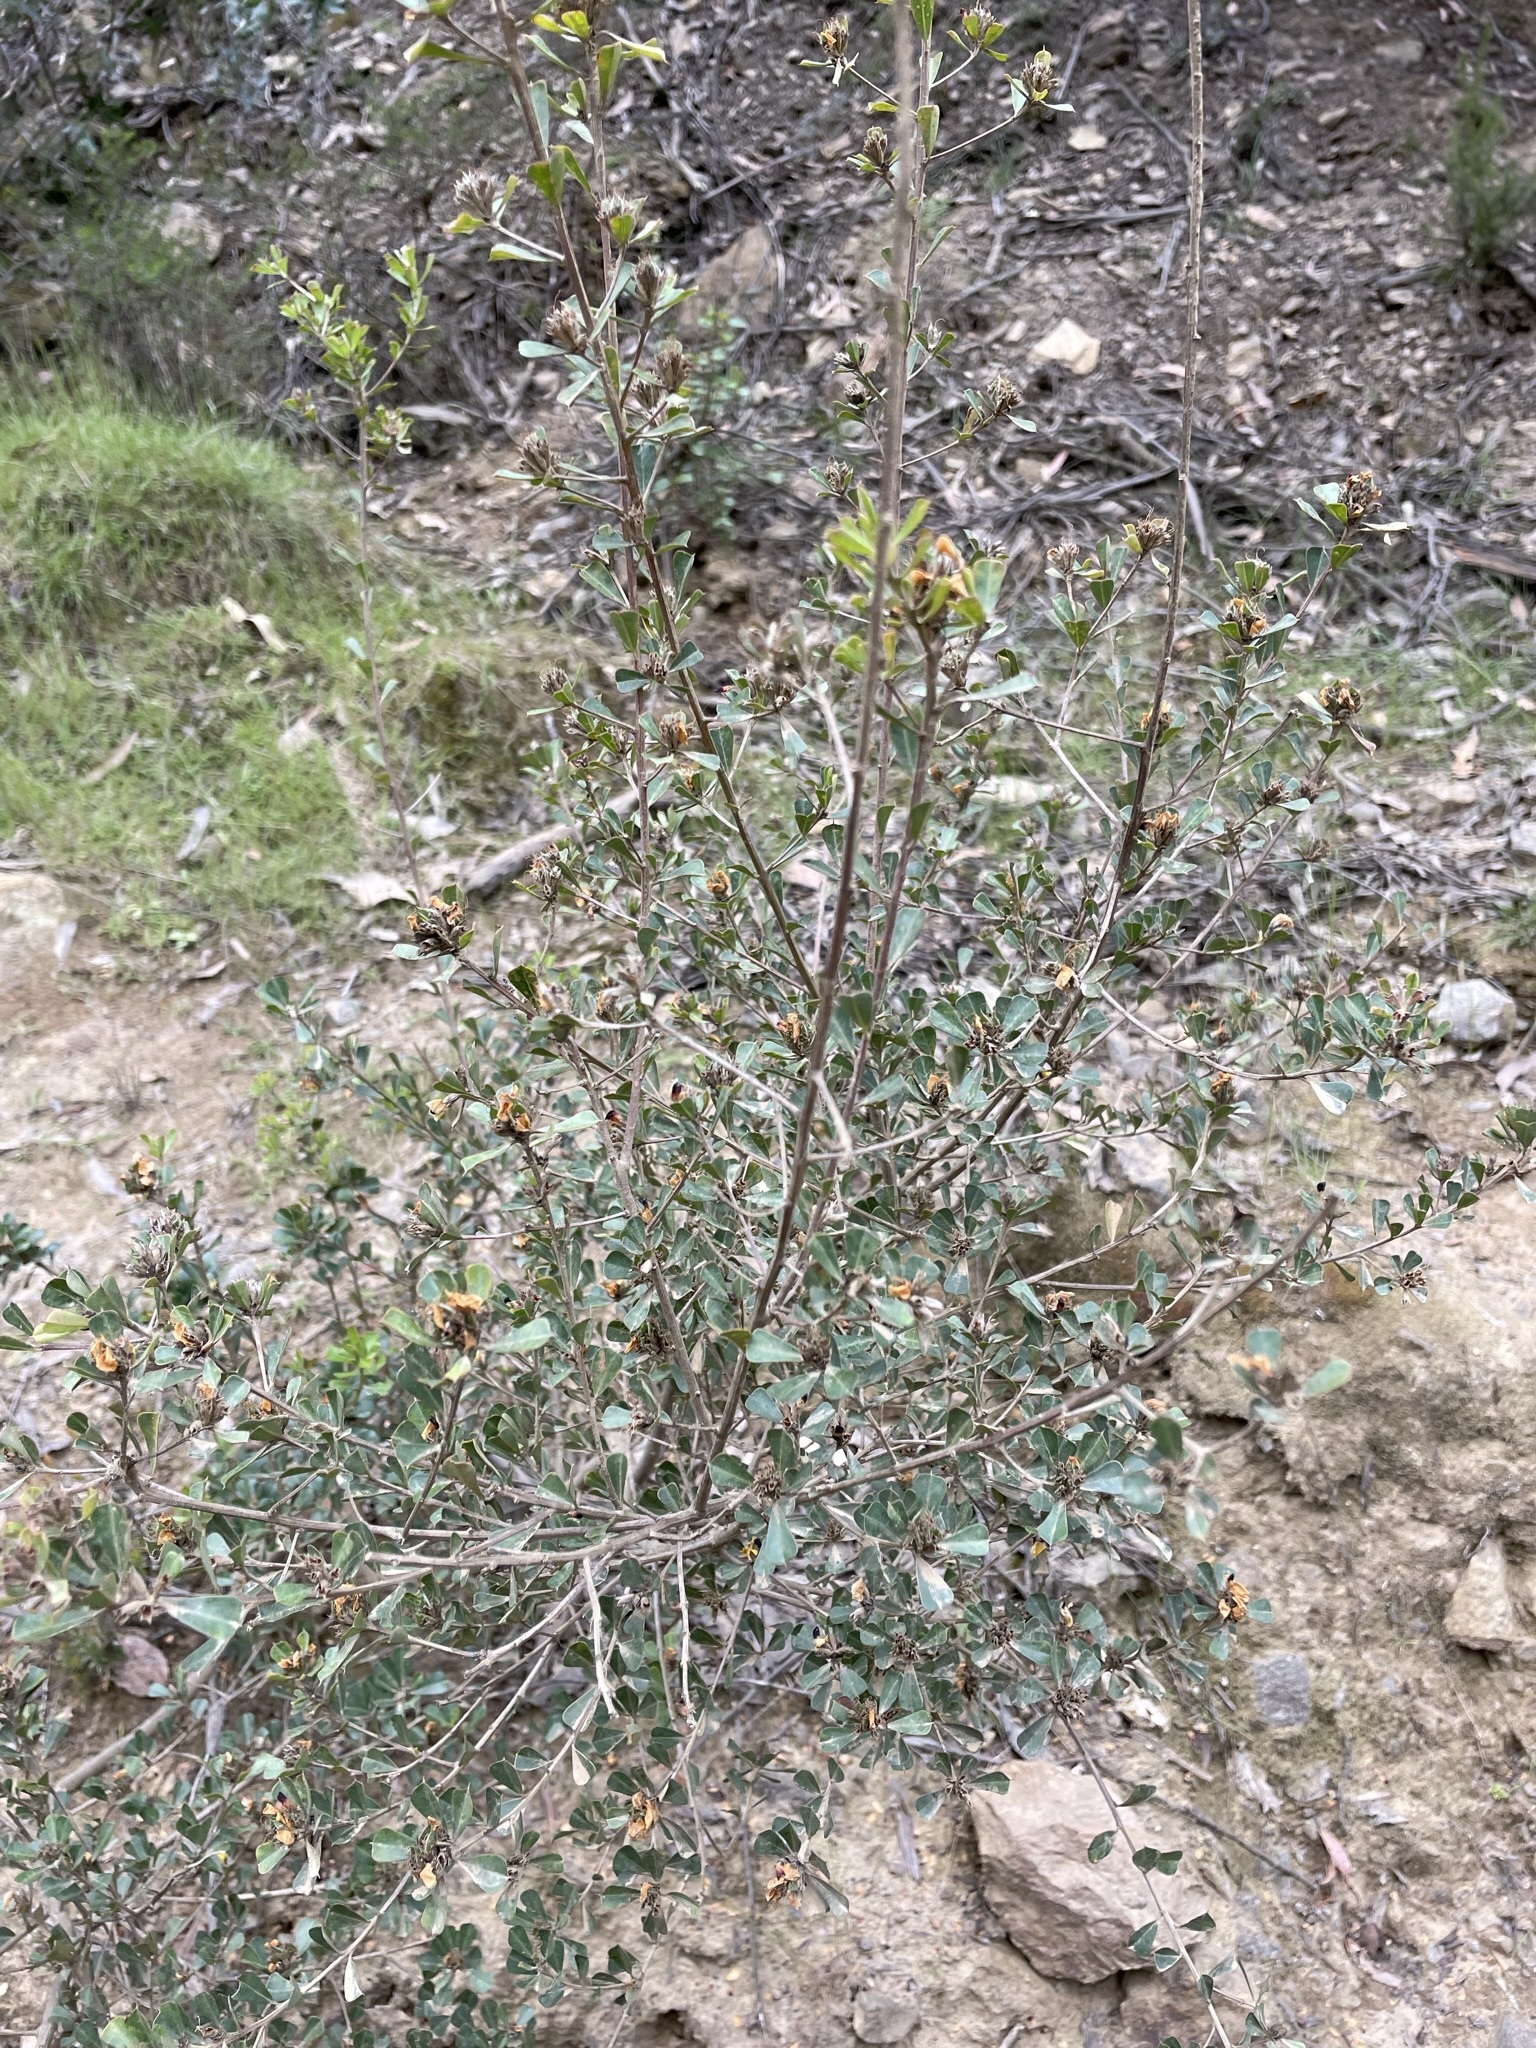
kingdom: Plantae
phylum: Tracheophyta
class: Magnoliopsida
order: Fabales
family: Fabaceae
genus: Pultenaea
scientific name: Pultenaea daphnoides
